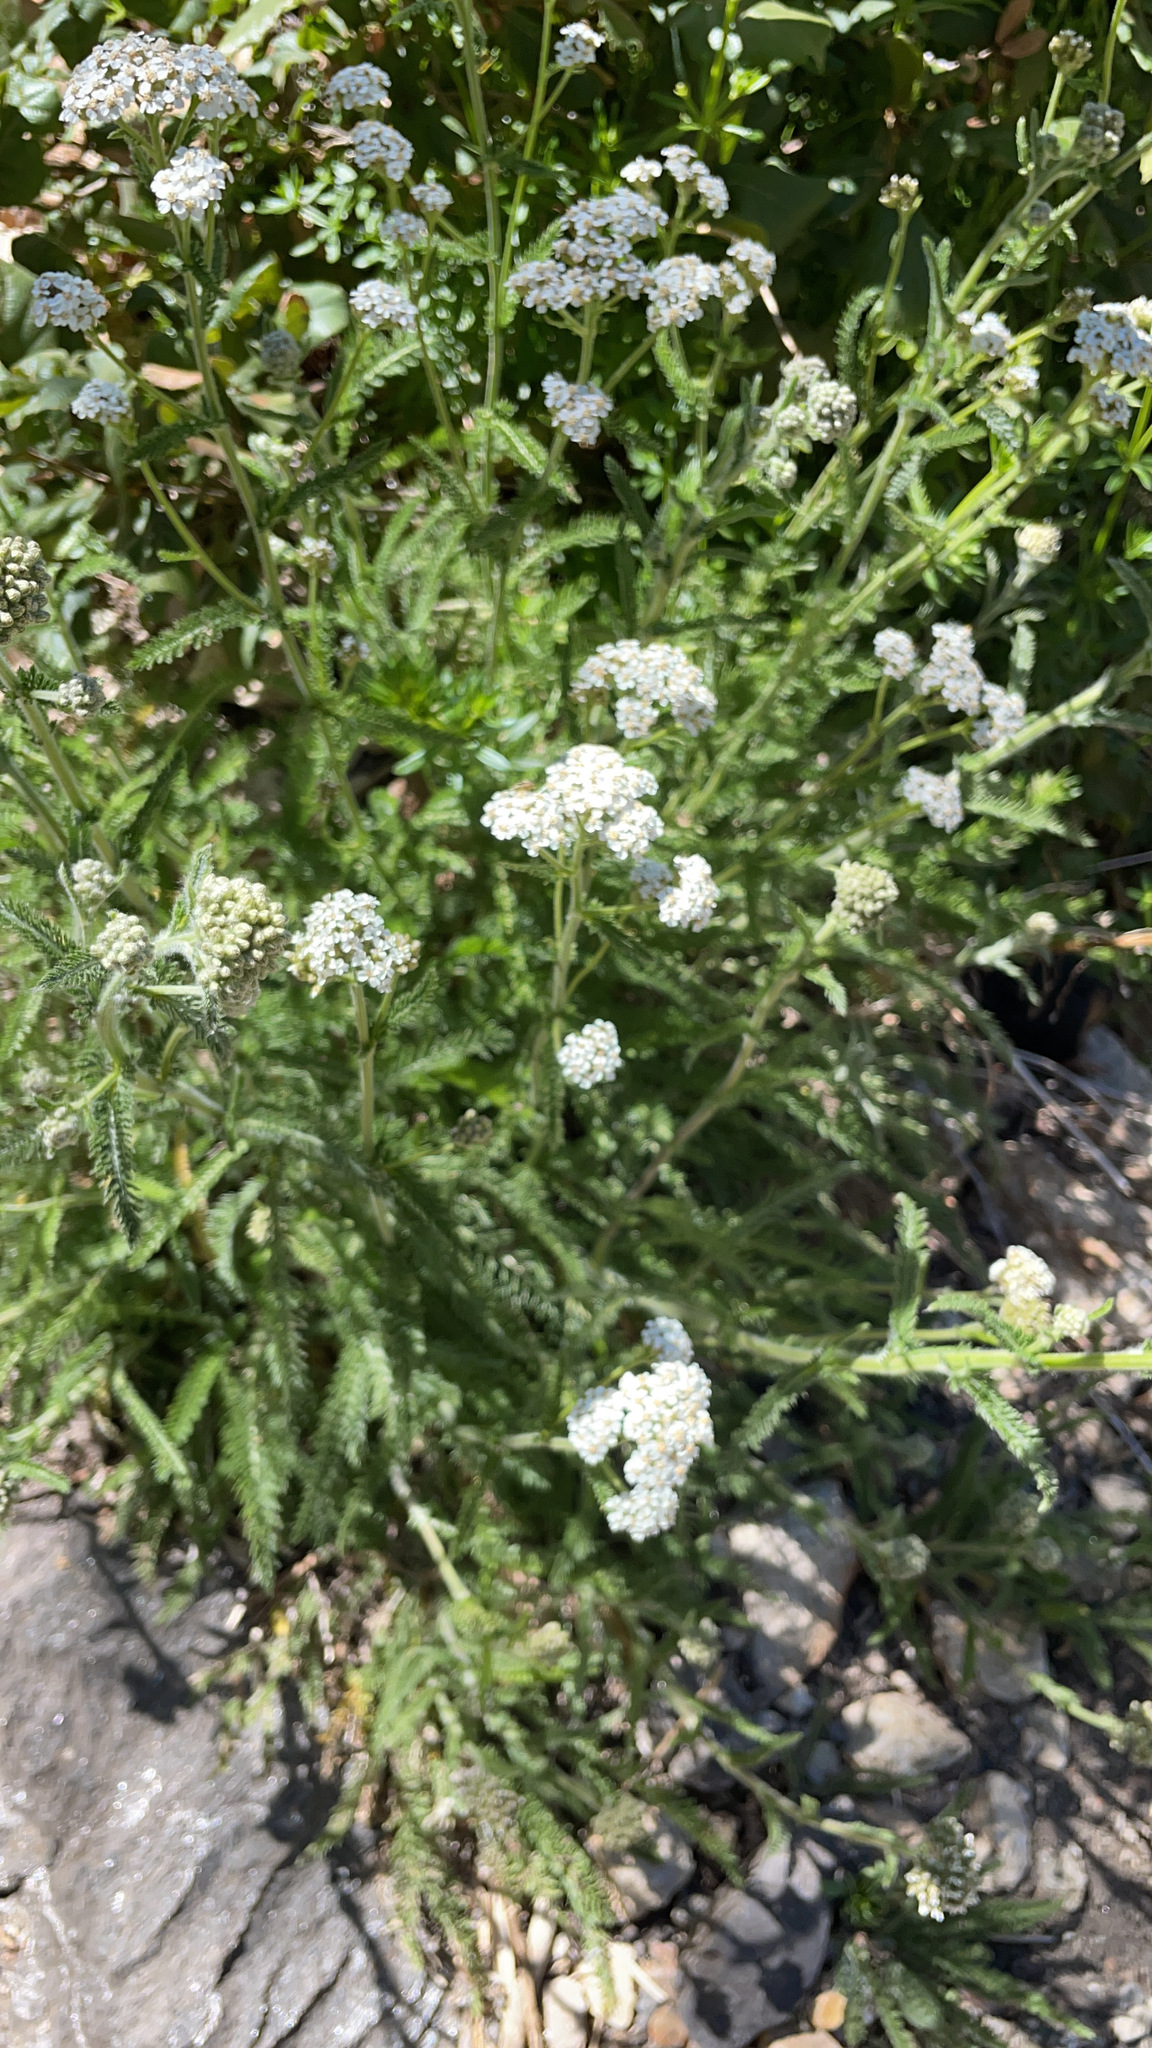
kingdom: Plantae
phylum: Tracheophyta
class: Magnoliopsida
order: Asterales
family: Asteraceae
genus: Achillea
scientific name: Achillea millefolium
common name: Yarrow
